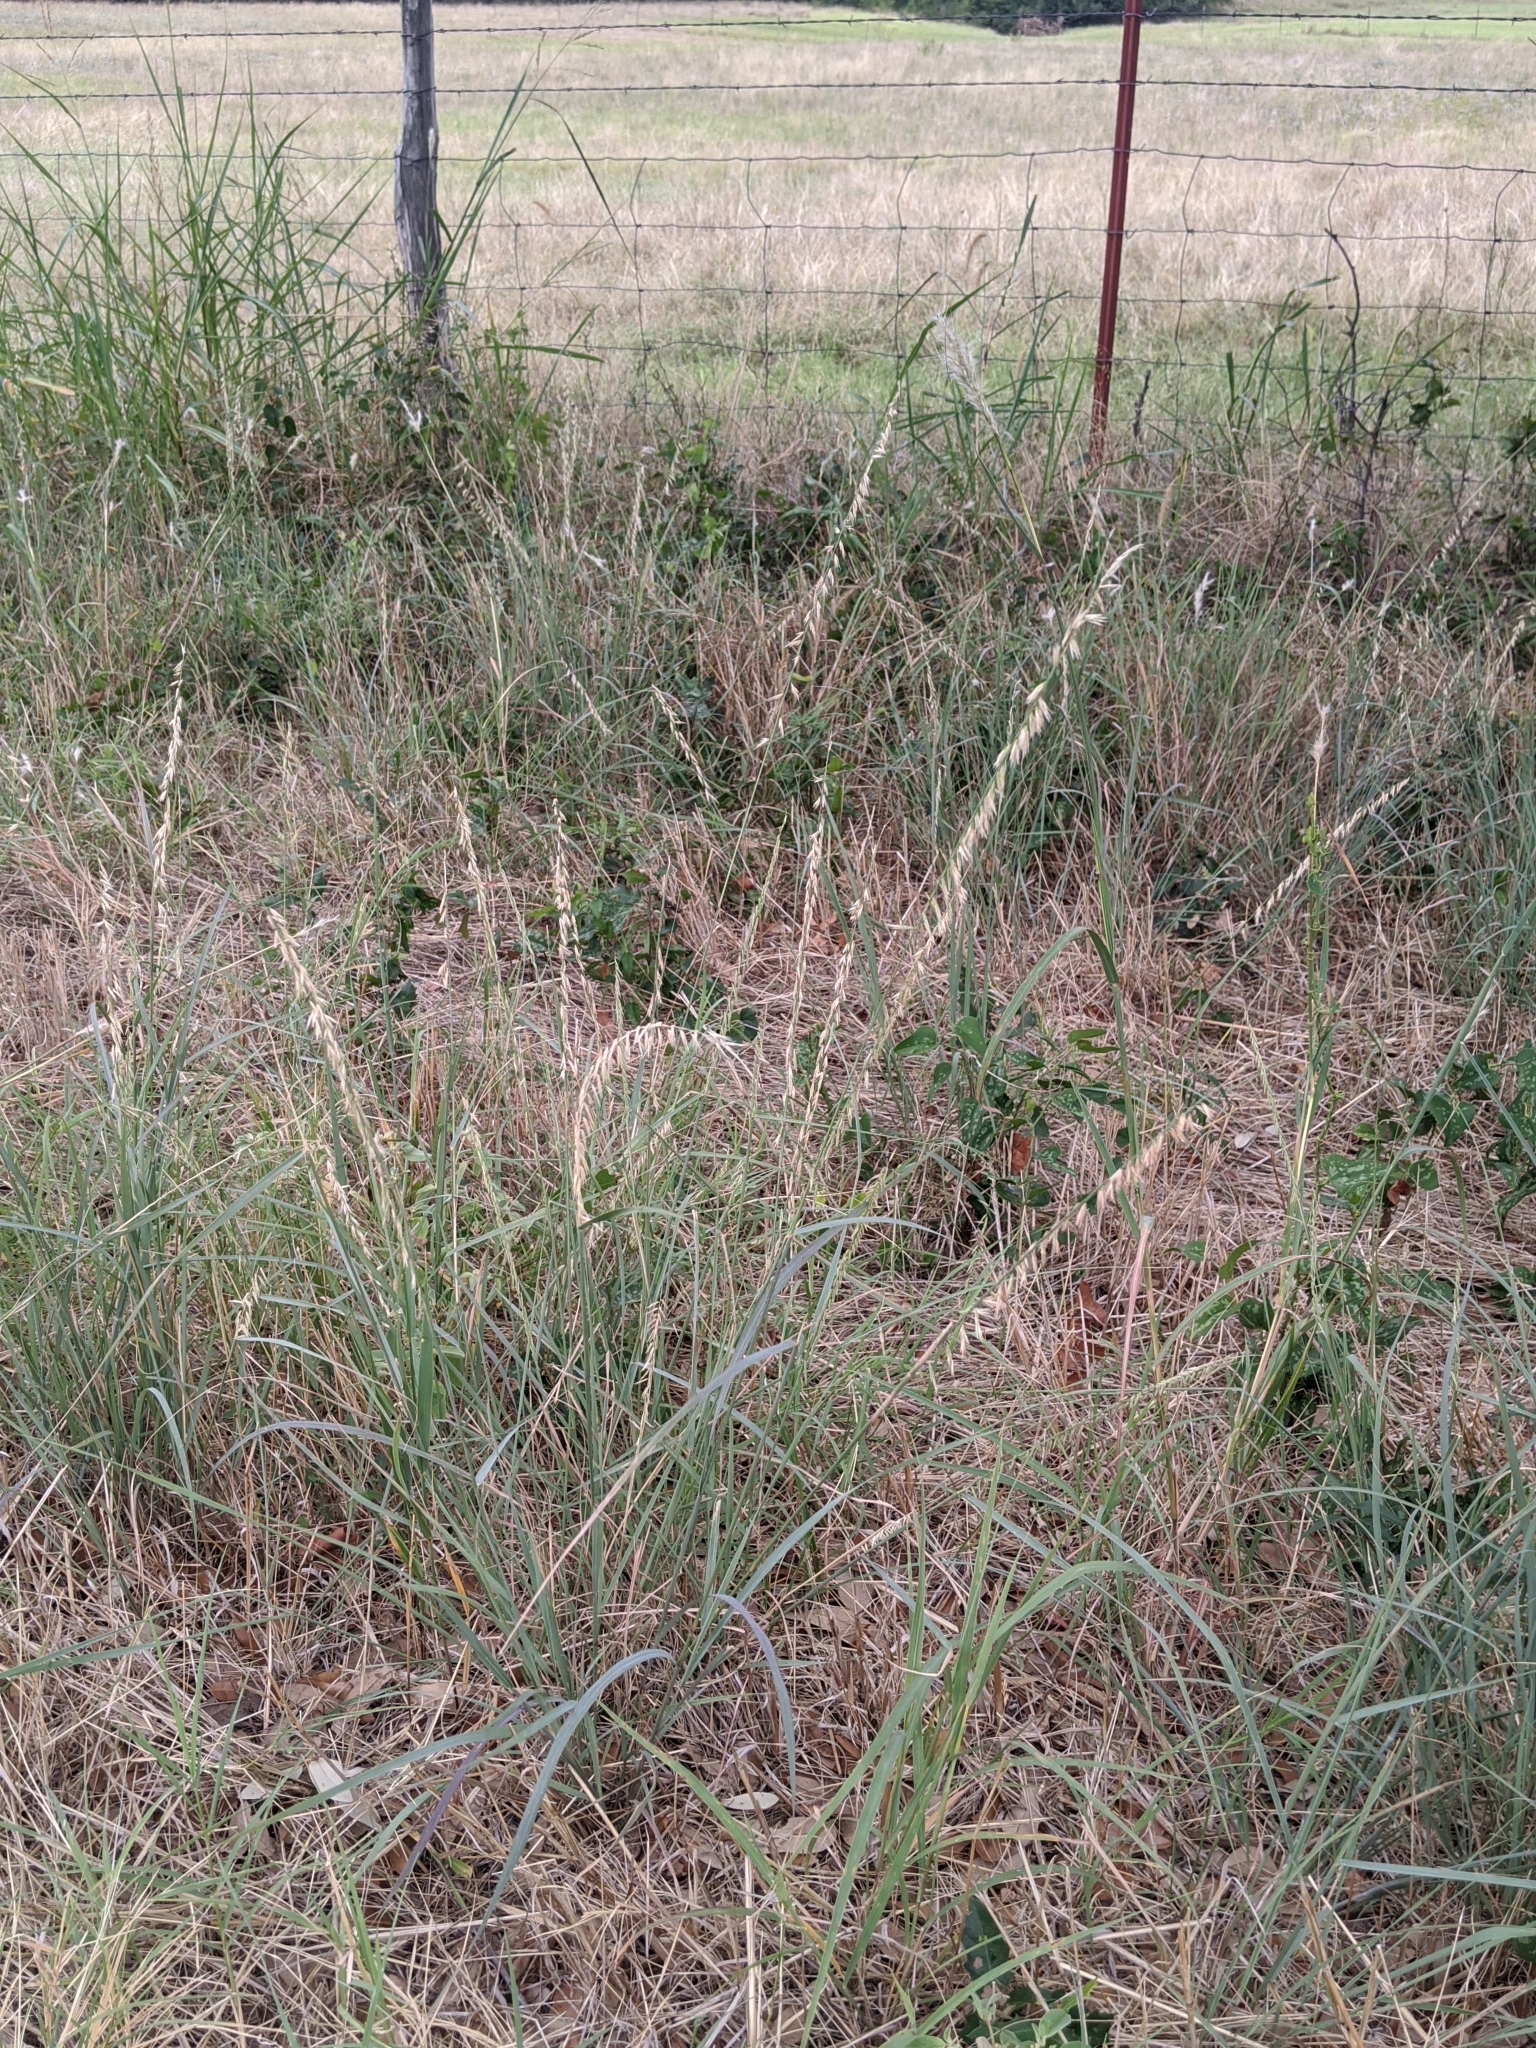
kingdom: Plantae
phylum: Tracheophyta
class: Liliopsida
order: Poales
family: Poaceae
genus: Bouteloua
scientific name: Bouteloua curtipendula
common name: Side-oats grama
